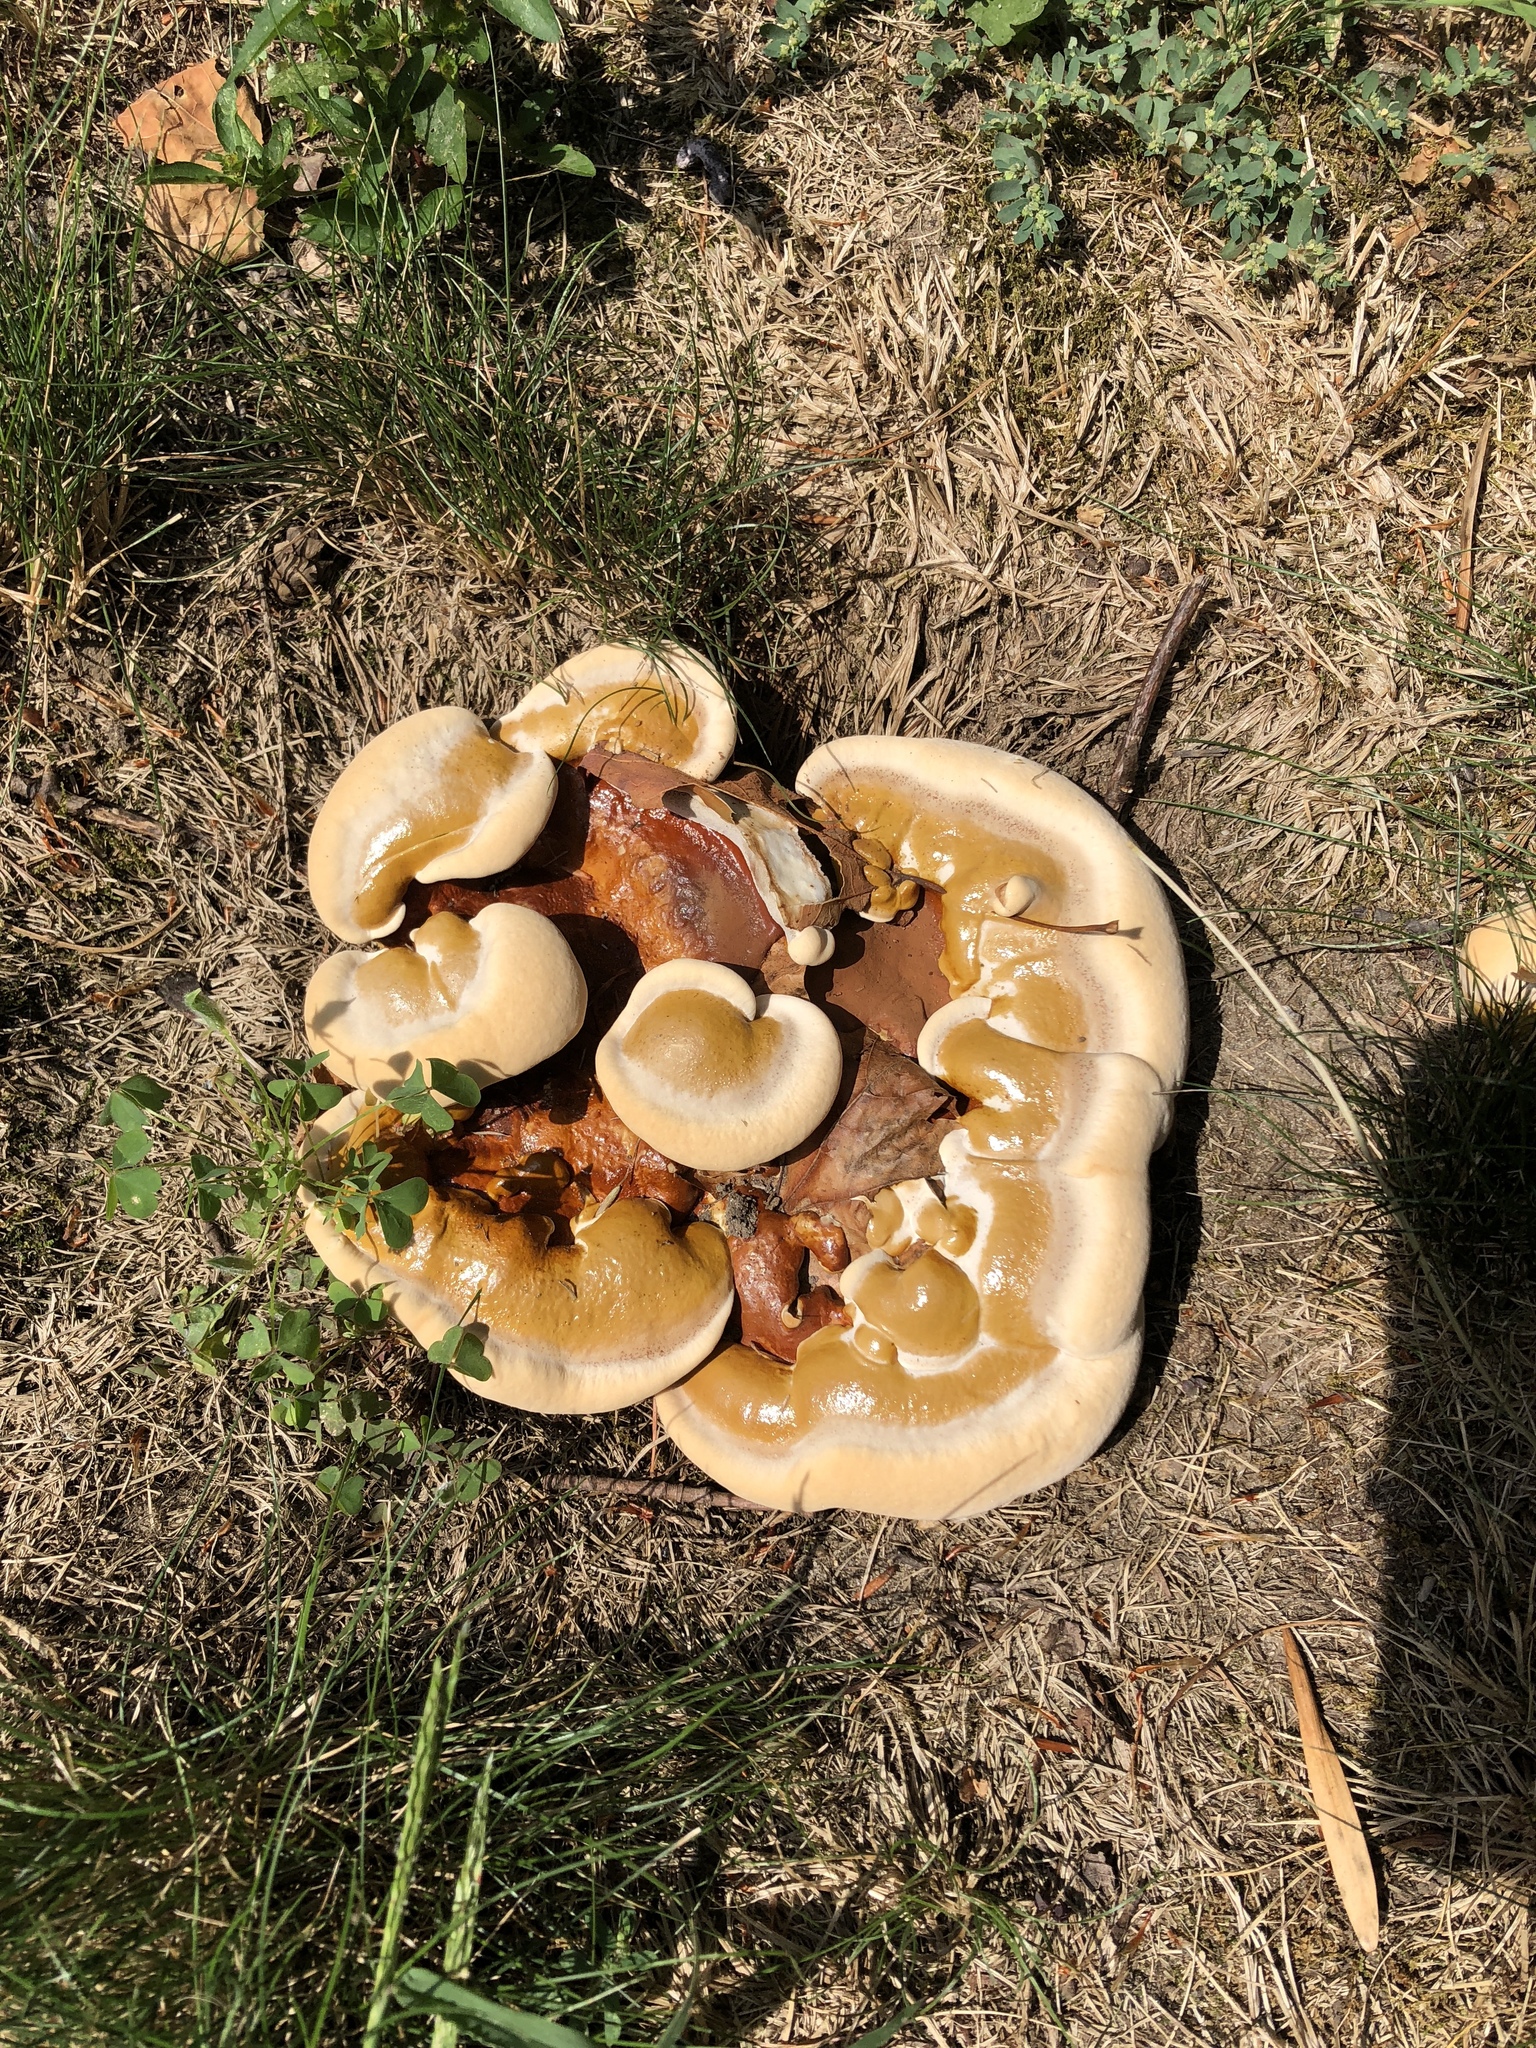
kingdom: Fungi
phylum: Basidiomycota
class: Agaricomycetes
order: Polyporales
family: Polyporaceae
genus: Ganoderma
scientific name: Ganoderma tsugae
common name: Hemlock varnish shelf
